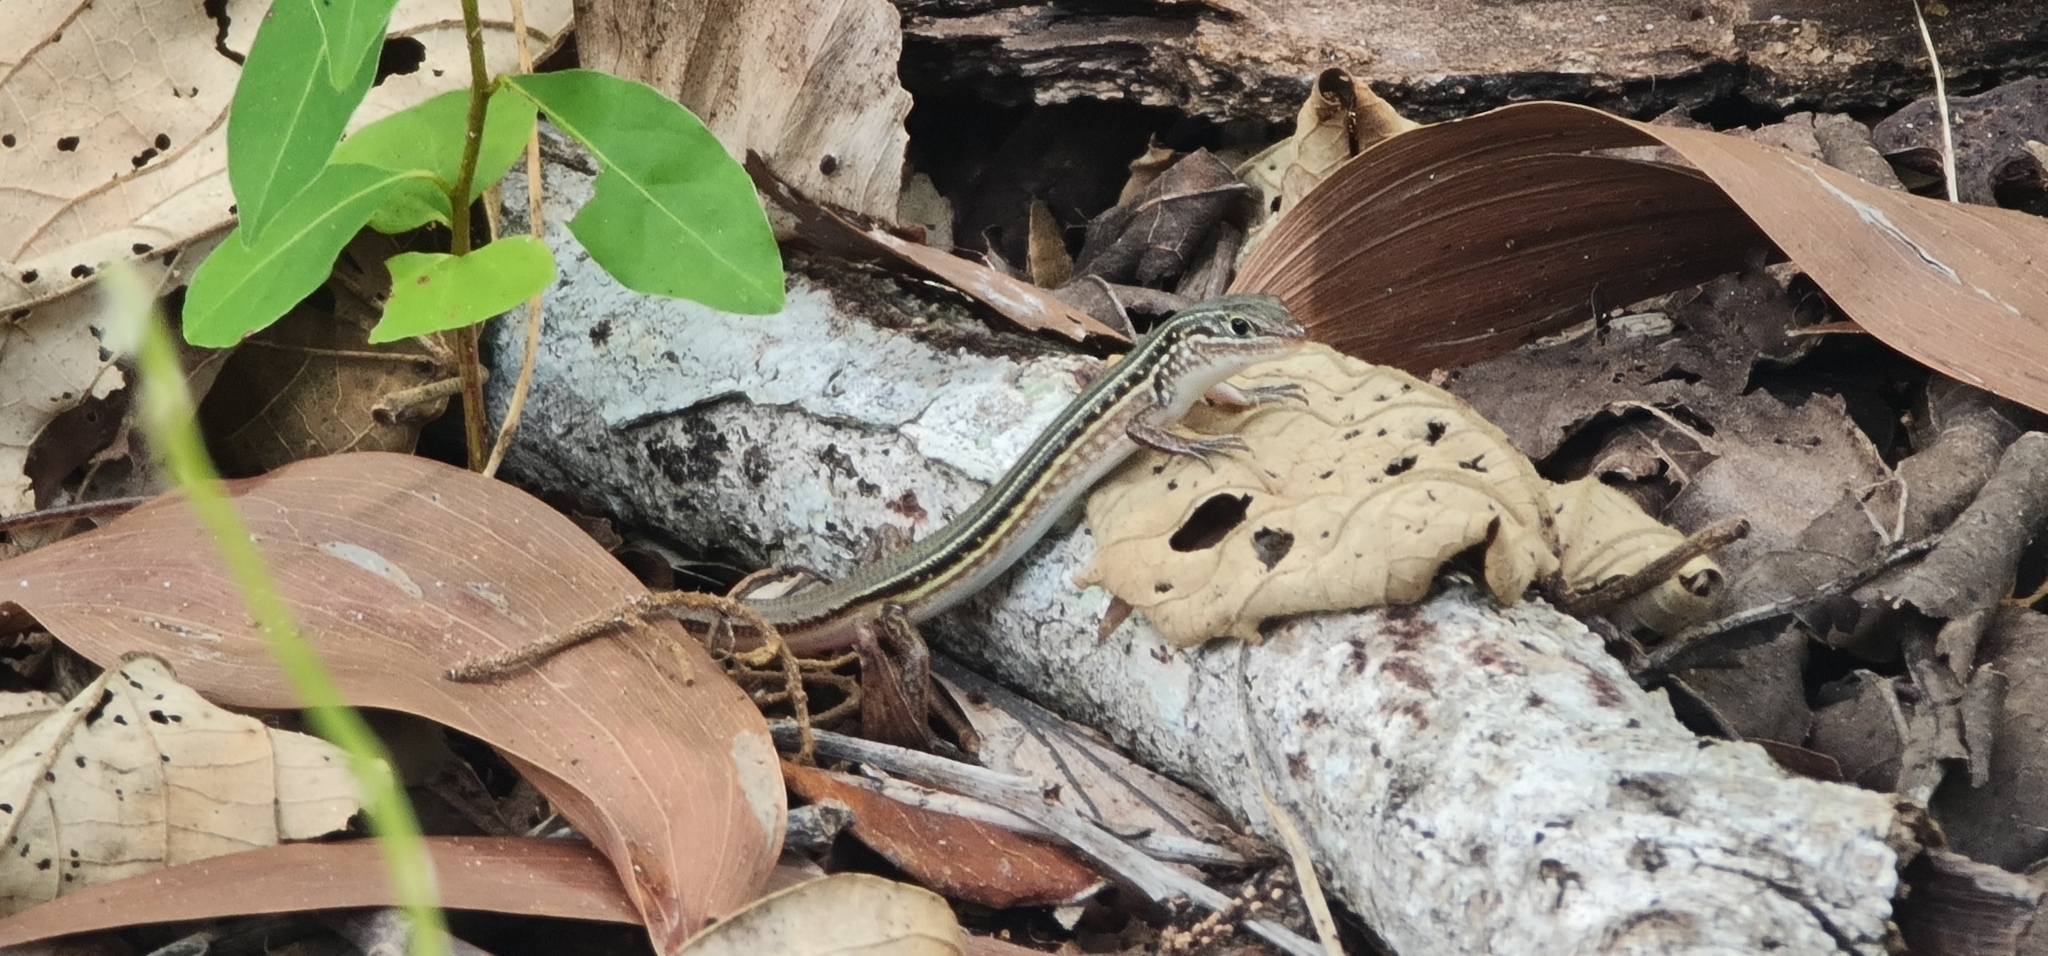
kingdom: Animalia
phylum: Chordata
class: Squamata
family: Scincidae
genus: Ctenotus
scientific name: Ctenotus essingtonii
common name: Lowlands plain-backed ctenotus
